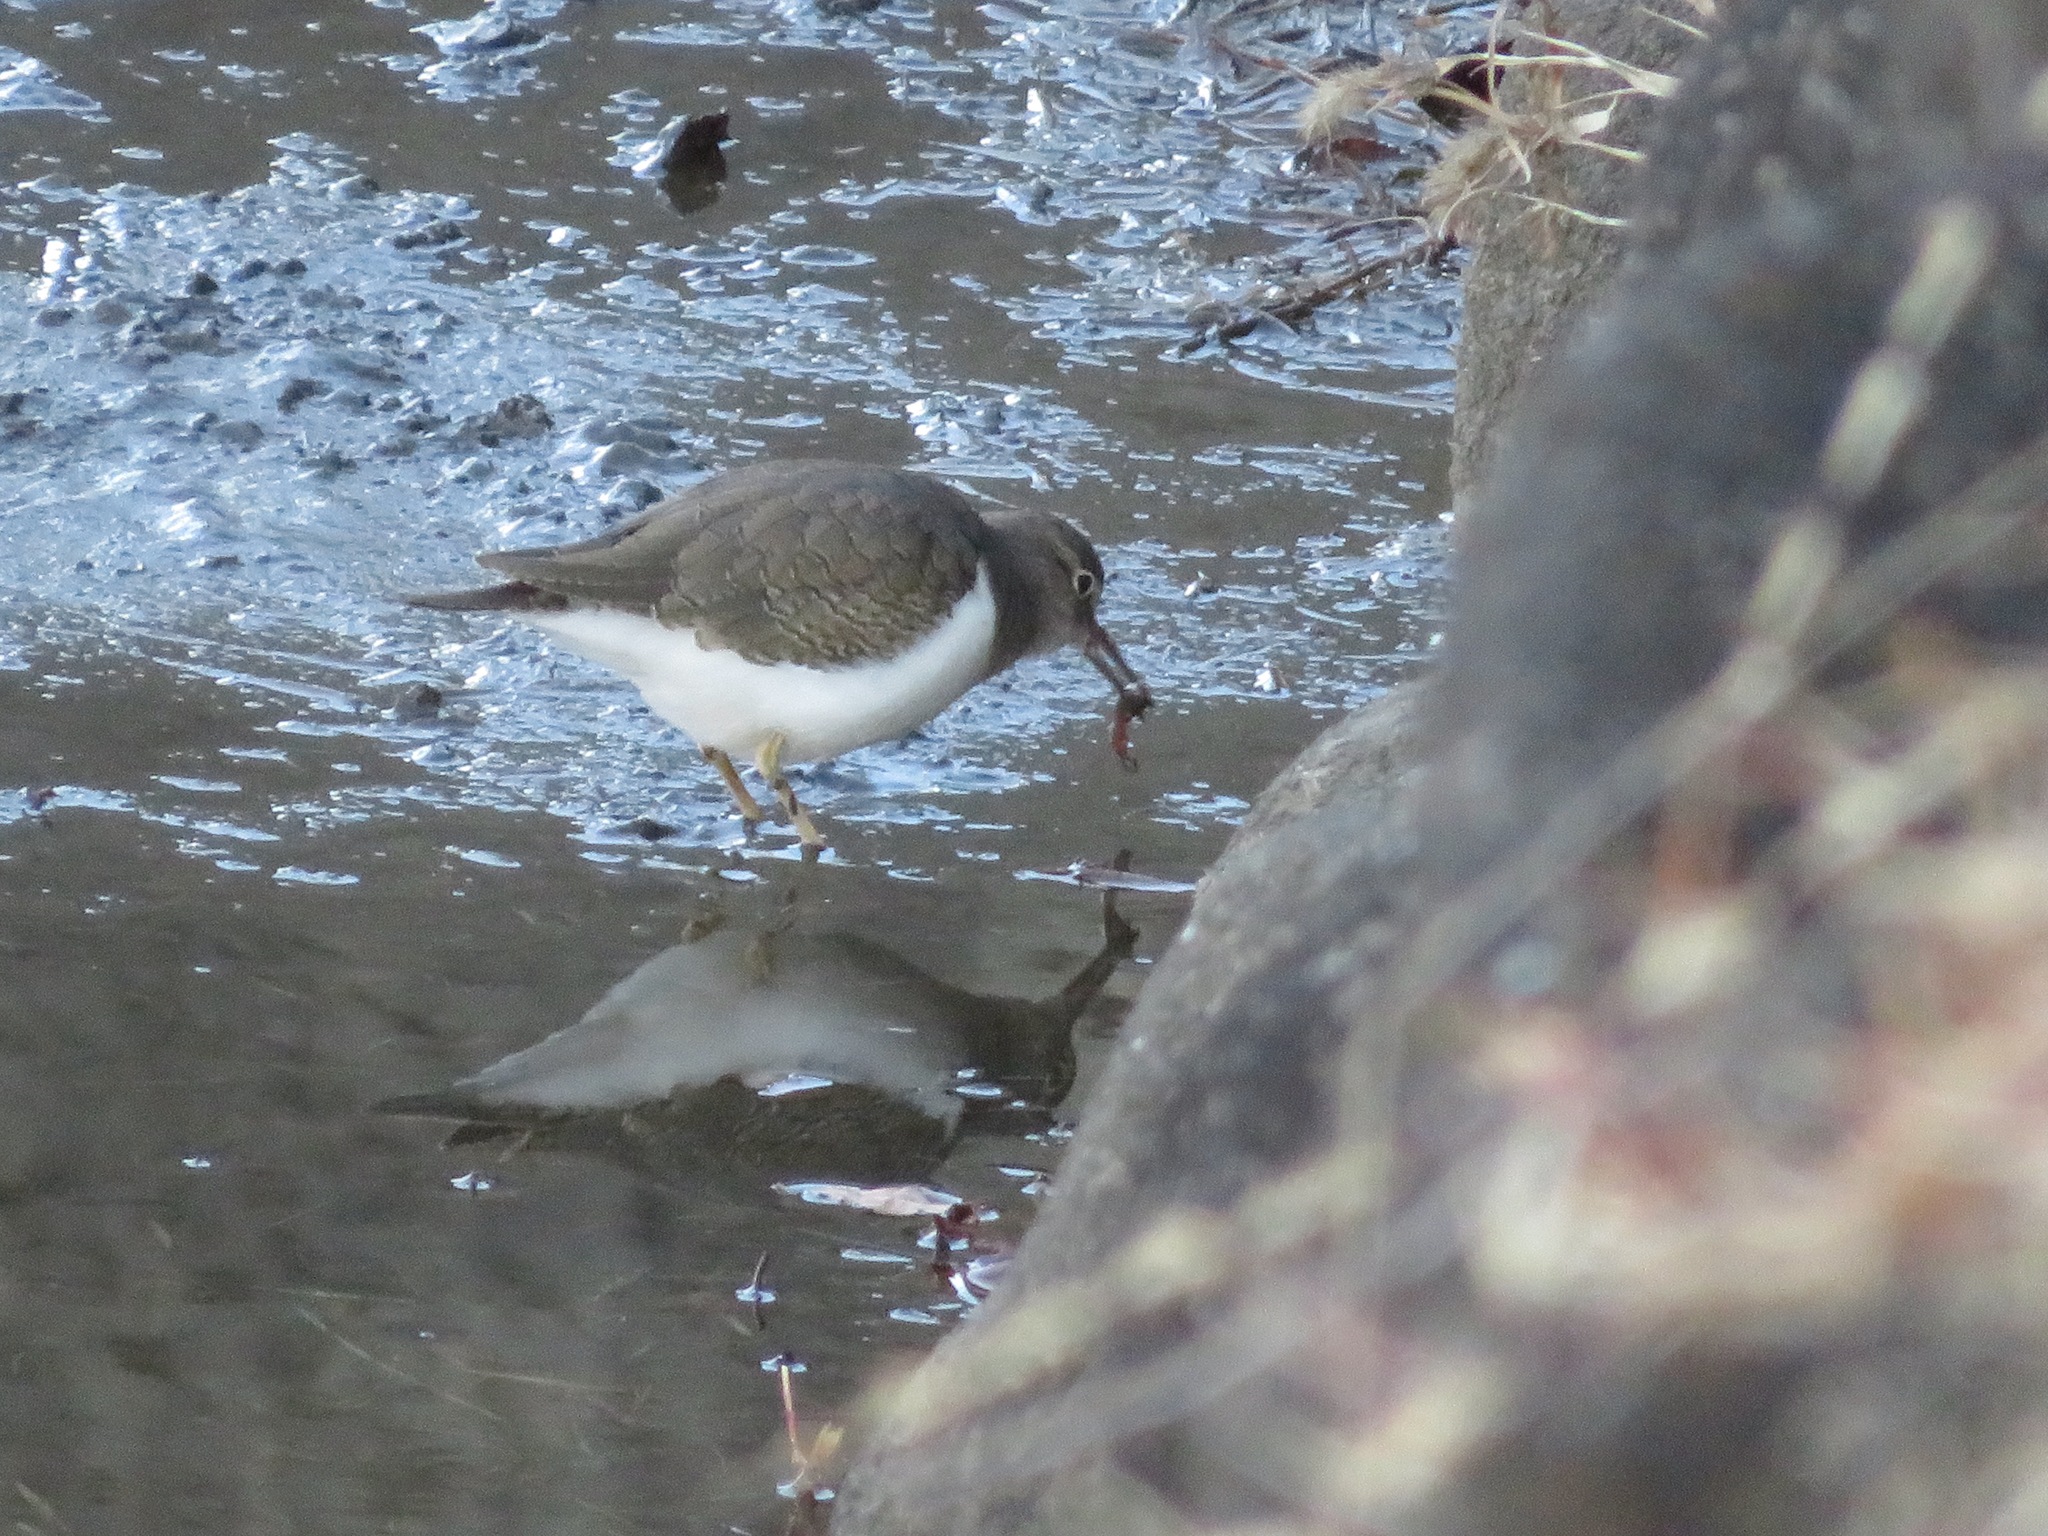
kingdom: Animalia
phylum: Chordata
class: Aves
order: Charadriiformes
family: Scolopacidae
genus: Actitis
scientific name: Actitis hypoleucos
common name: Common sandpiper
